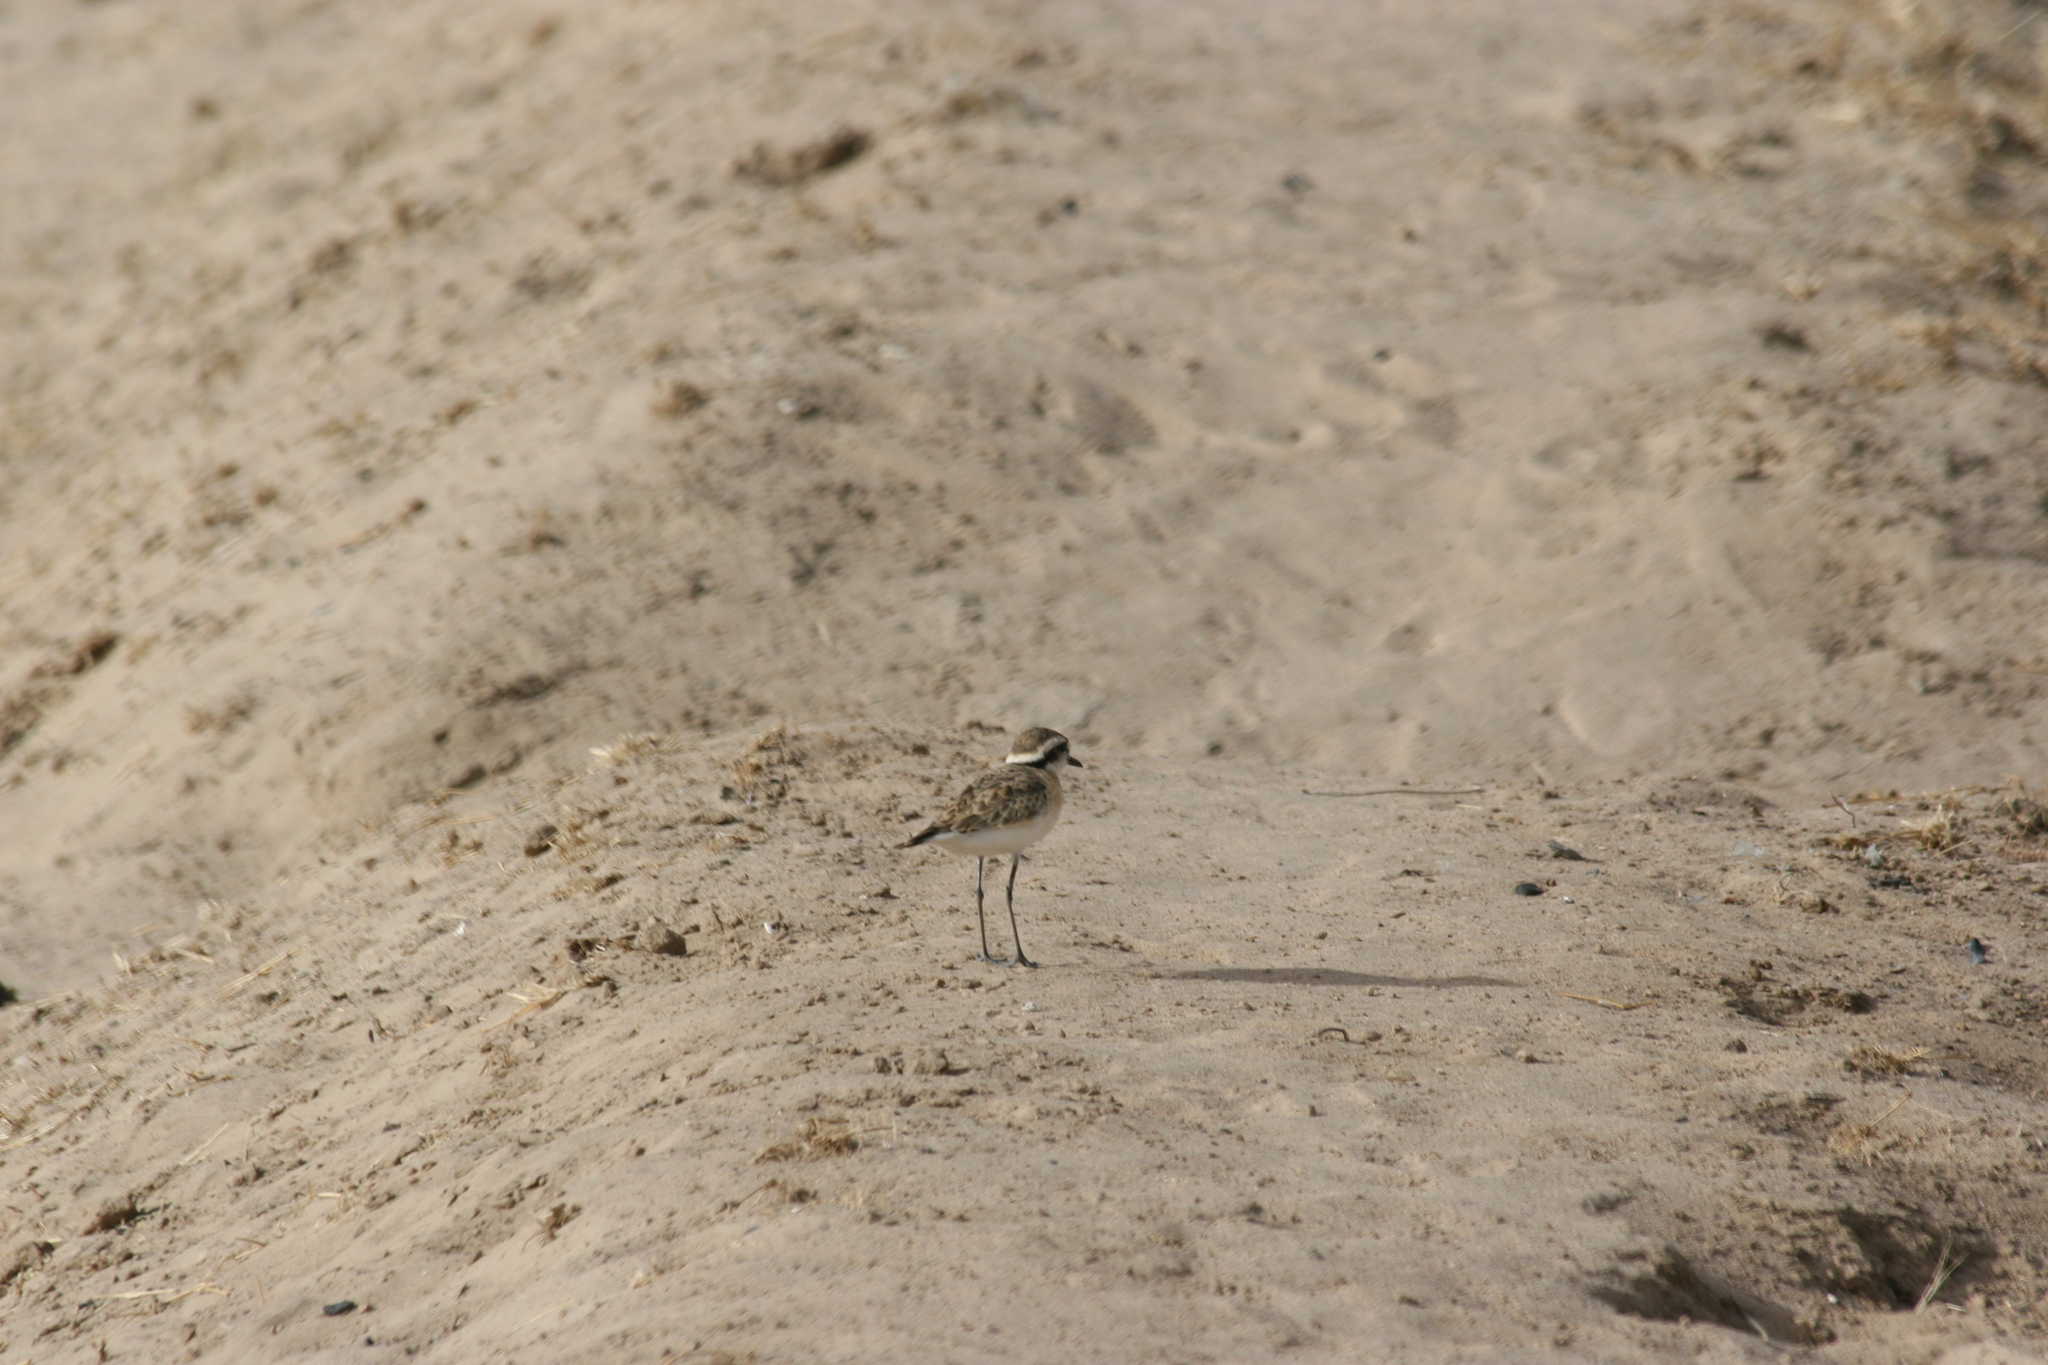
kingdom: Animalia
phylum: Chordata
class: Aves
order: Charadriiformes
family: Charadriidae
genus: Anarhynchus
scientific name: Anarhynchus
